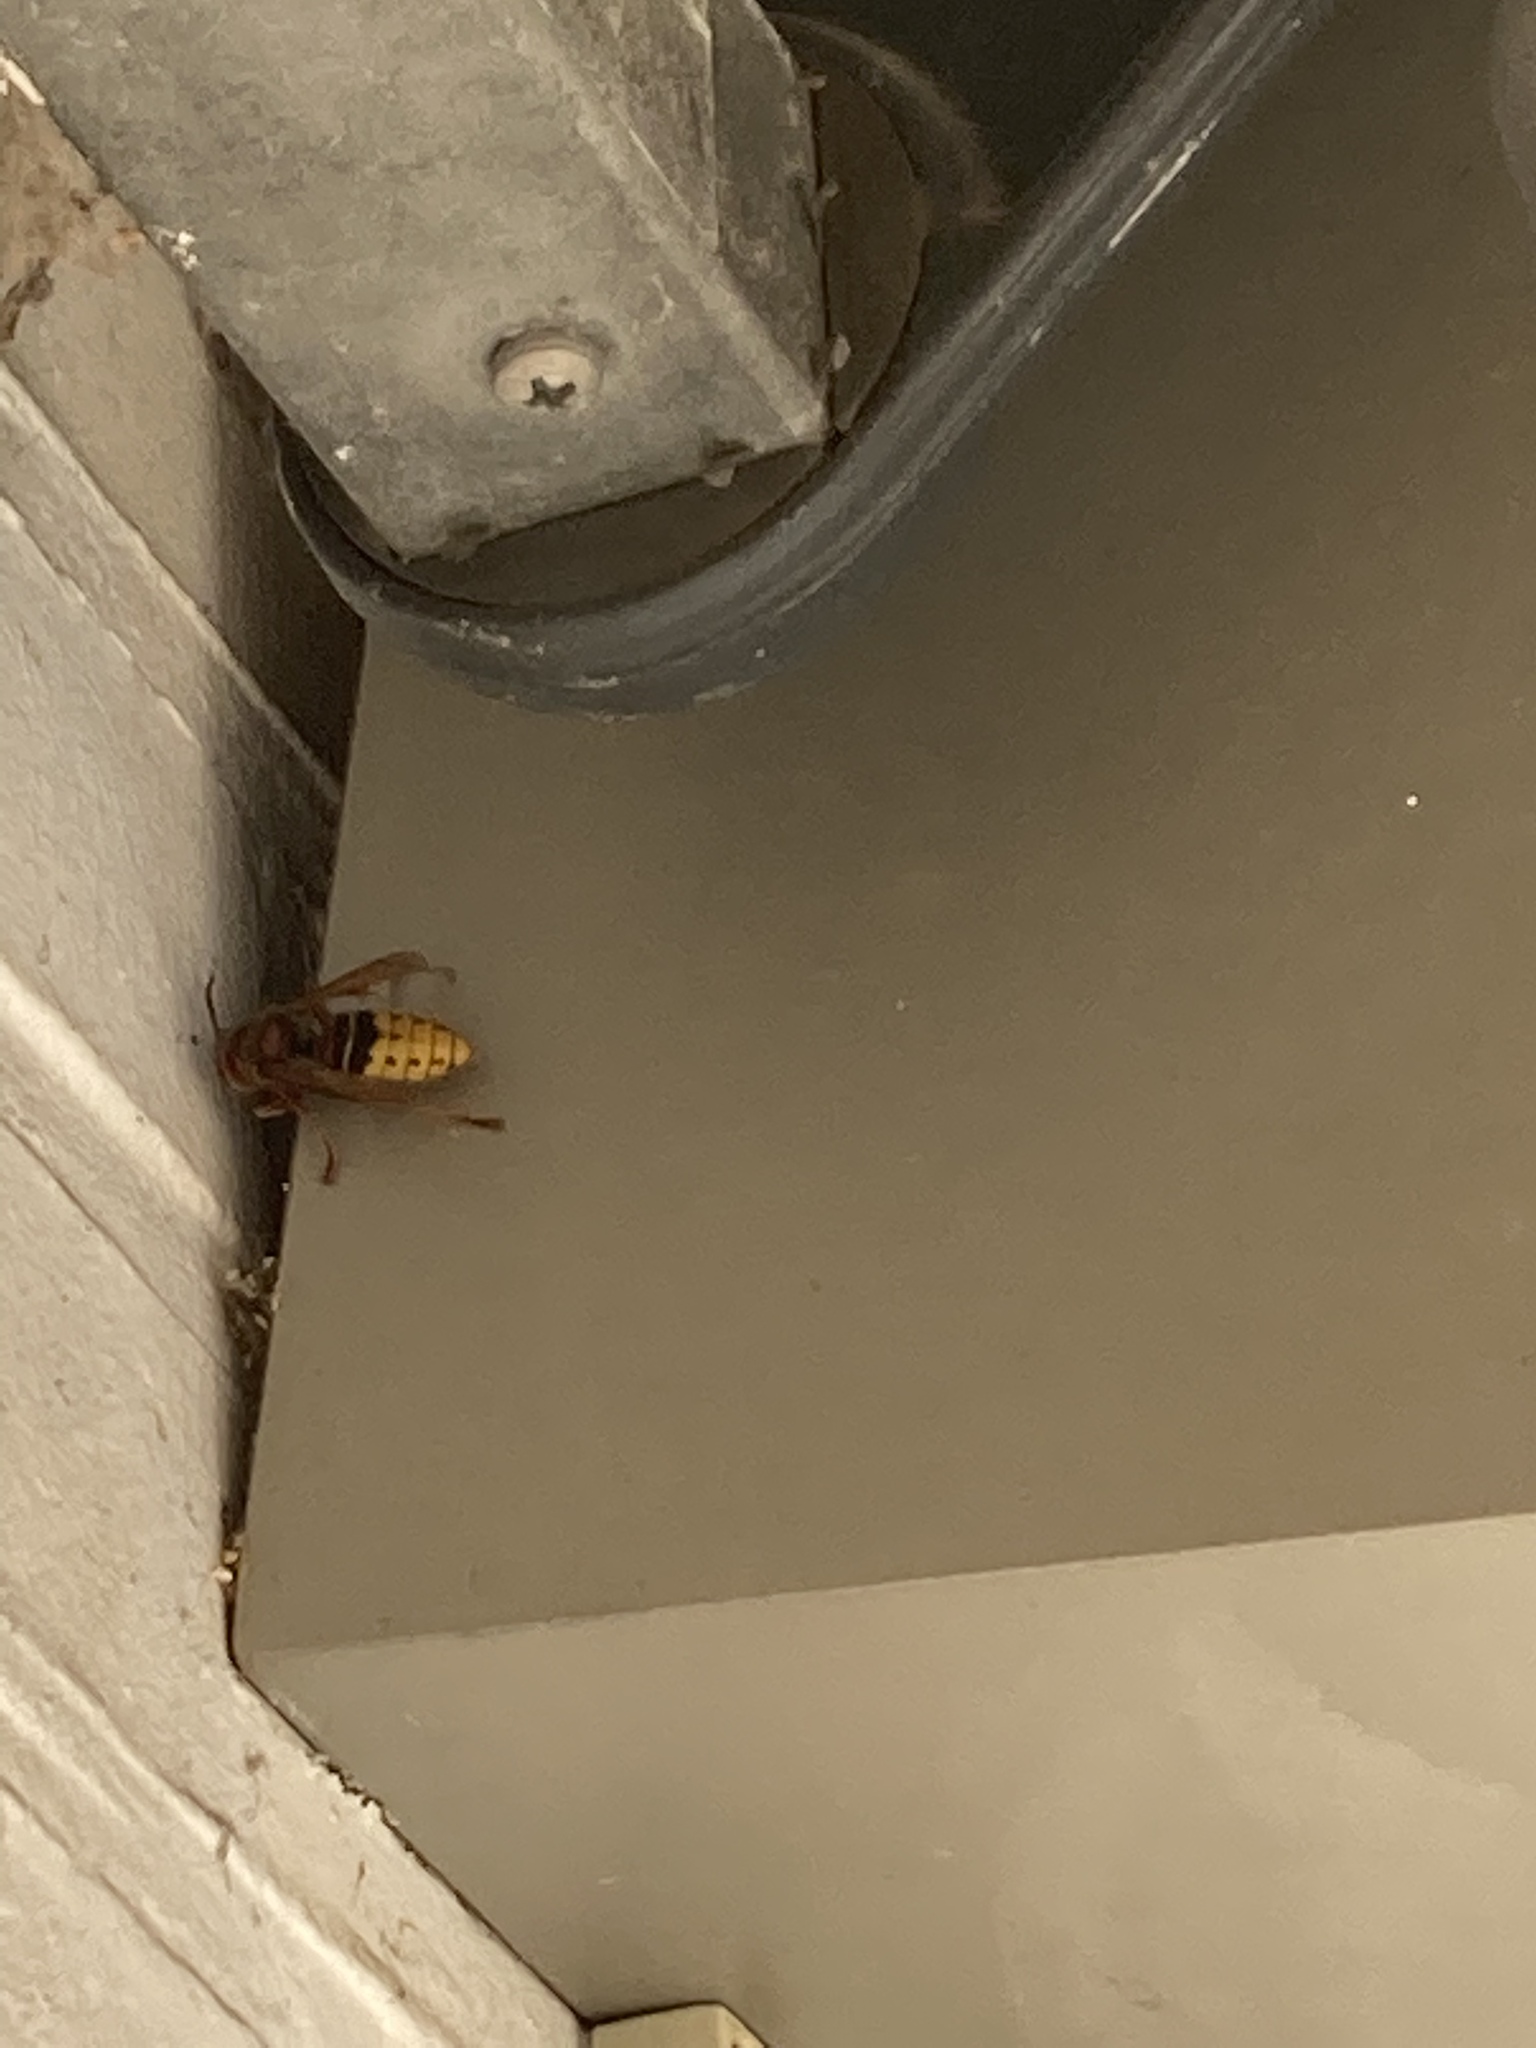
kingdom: Animalia
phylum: Arthropoda
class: Insecta
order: Hymenoptera
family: Vespidae
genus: Vespa
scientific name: Vespa crabro
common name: Hornet
